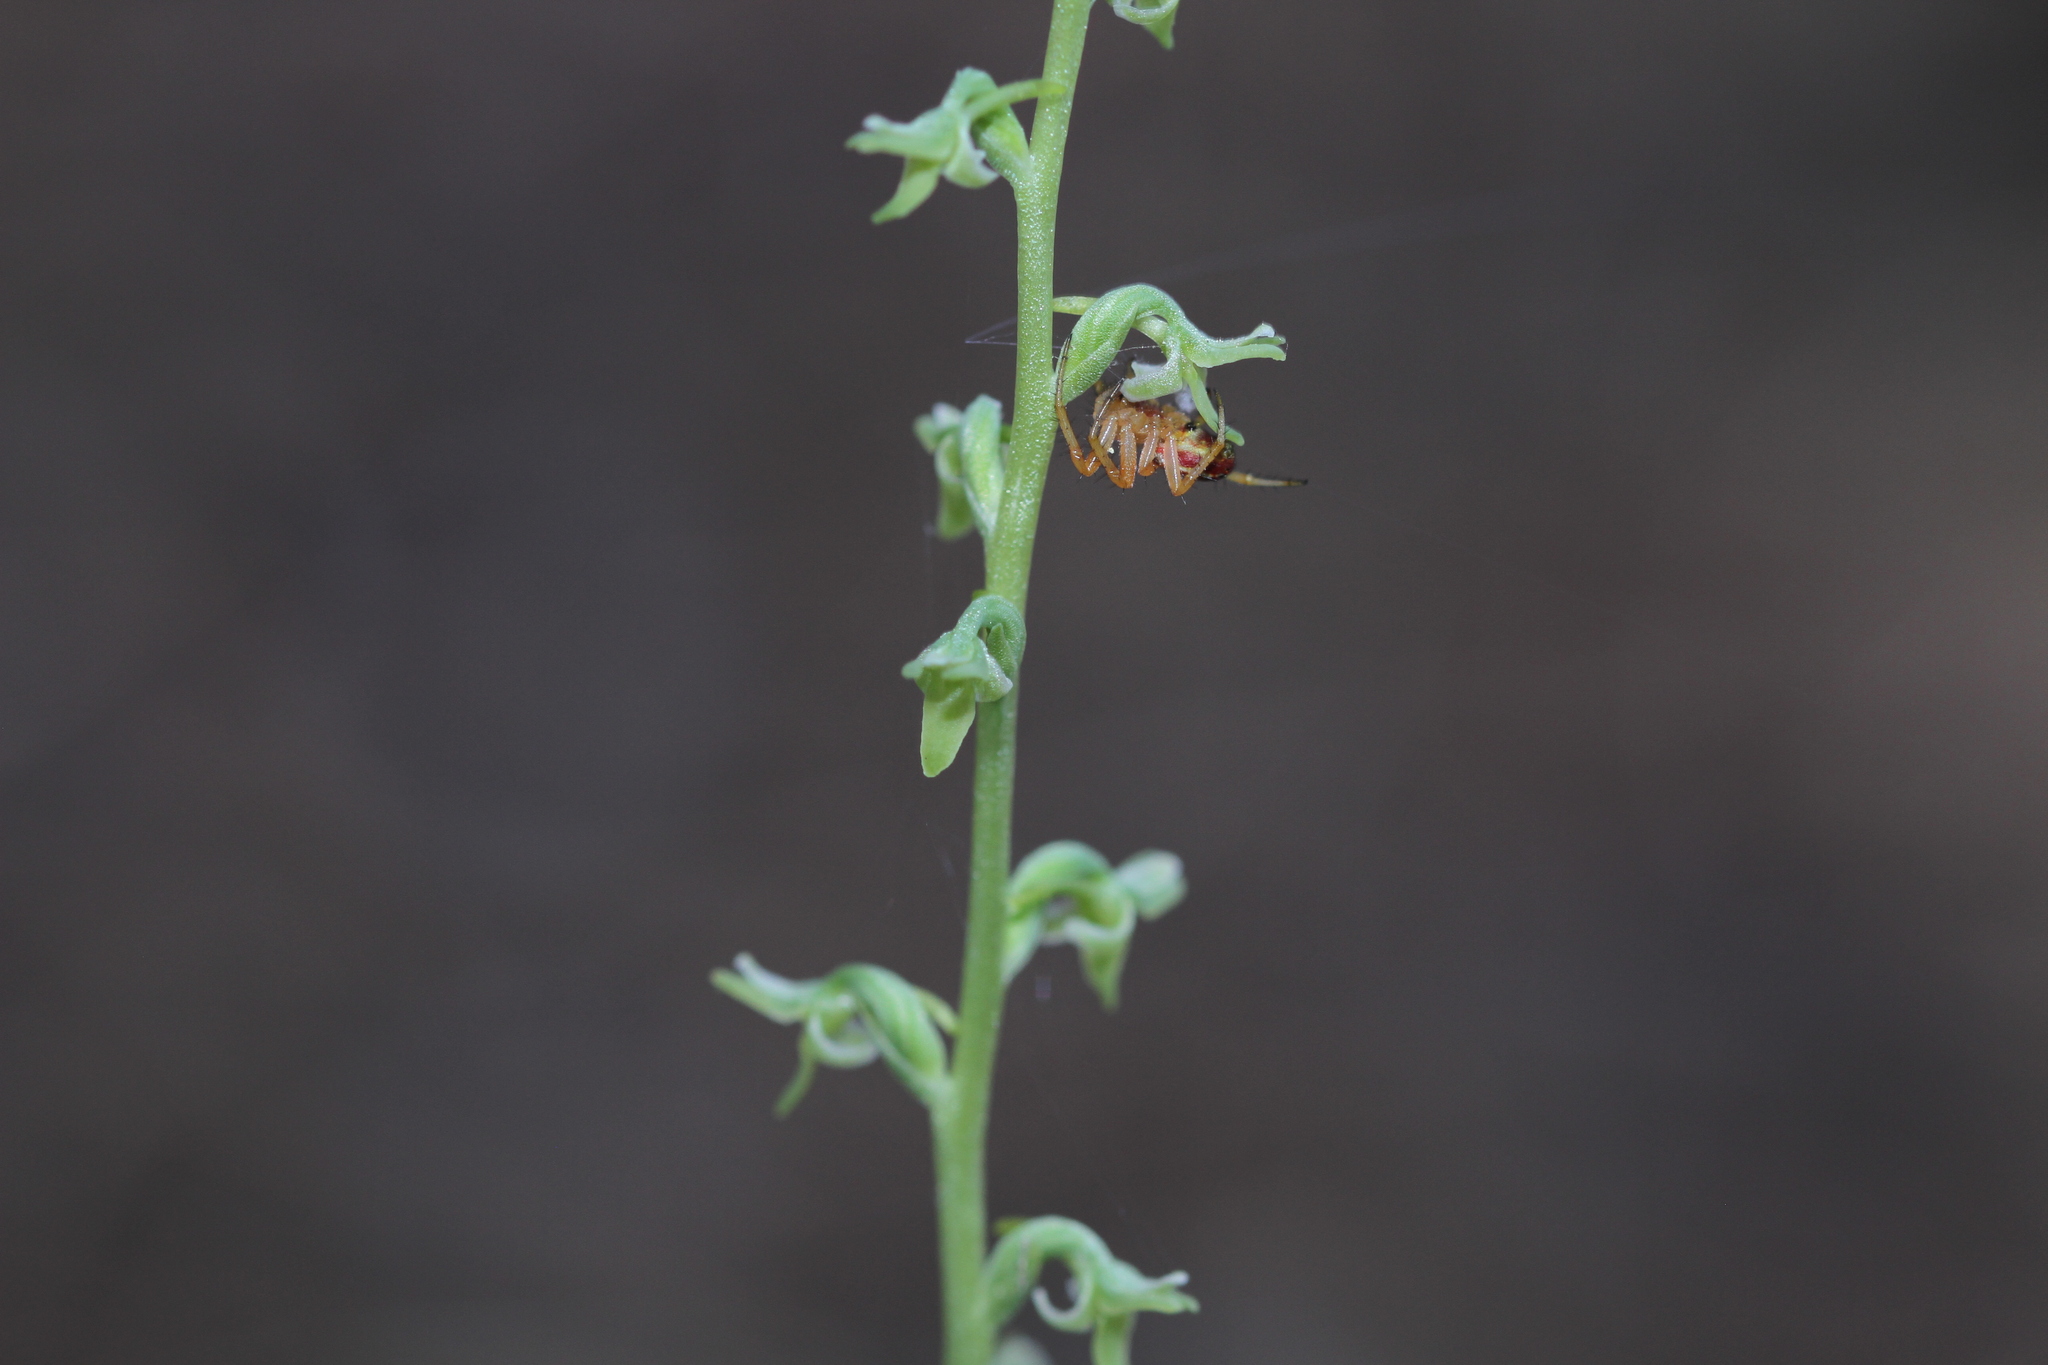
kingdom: Plantae
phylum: Tracheophyta
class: Liliopsida
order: Asparagales
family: Orchidaceae
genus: Platanthera
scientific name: Platanthera unalascensis
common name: Alaska bog orchid
